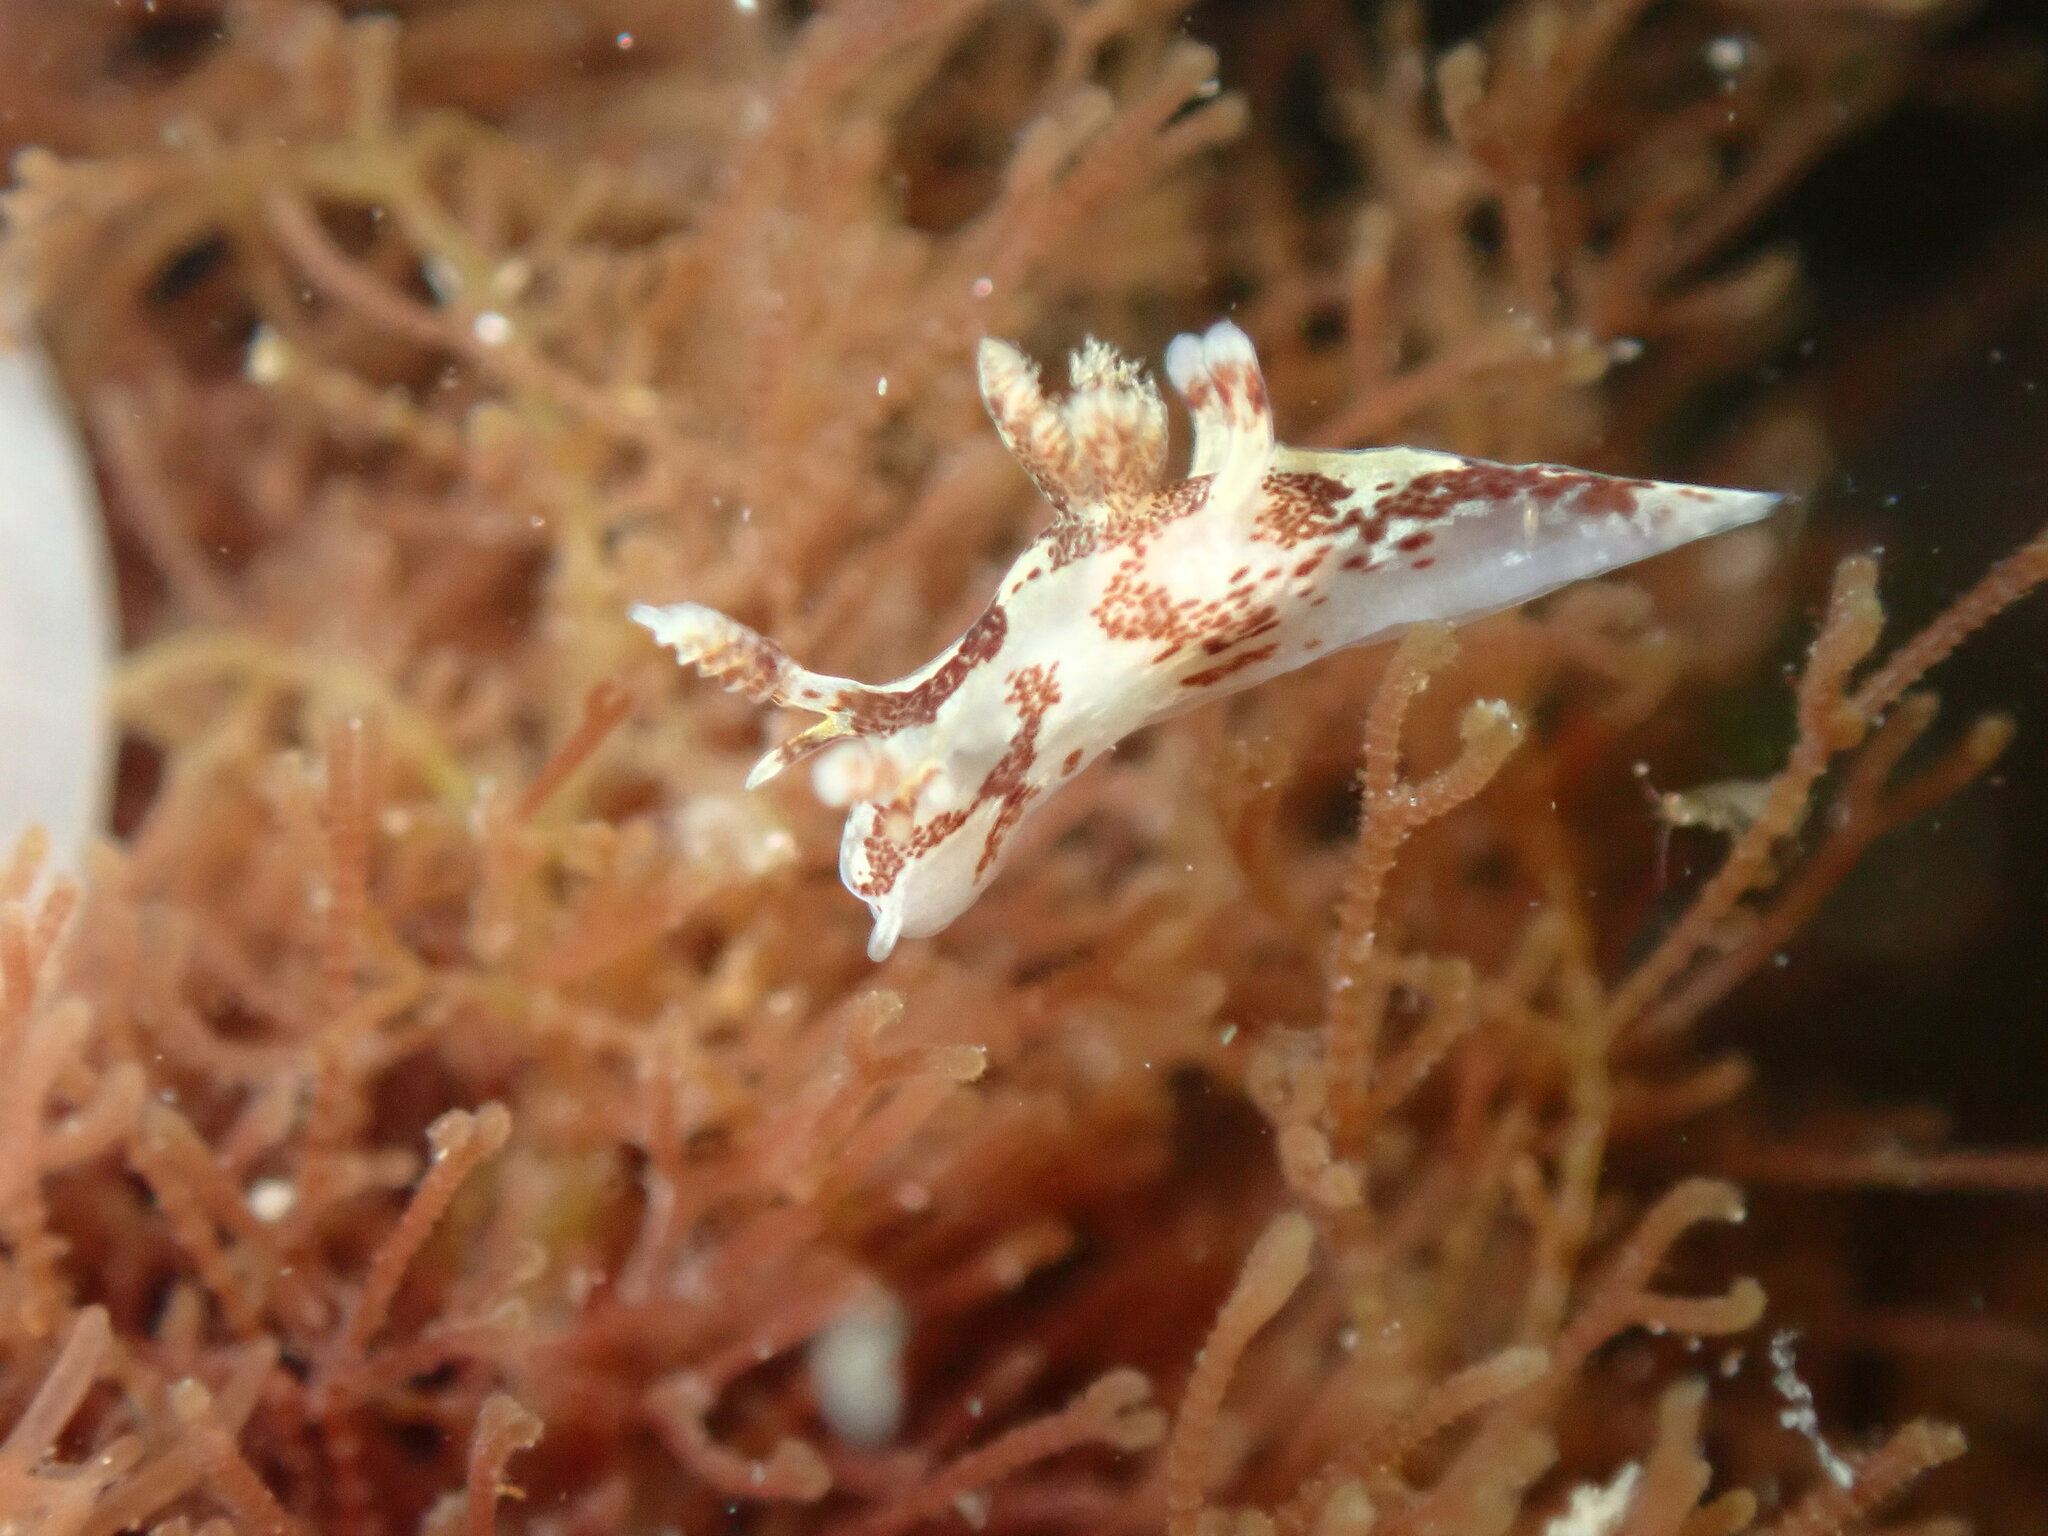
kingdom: Animalia
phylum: Mollusca
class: Gastropoda
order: Nudibranchia
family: Goniodorididae
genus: Ancula
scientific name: Ancula lentiginosa
